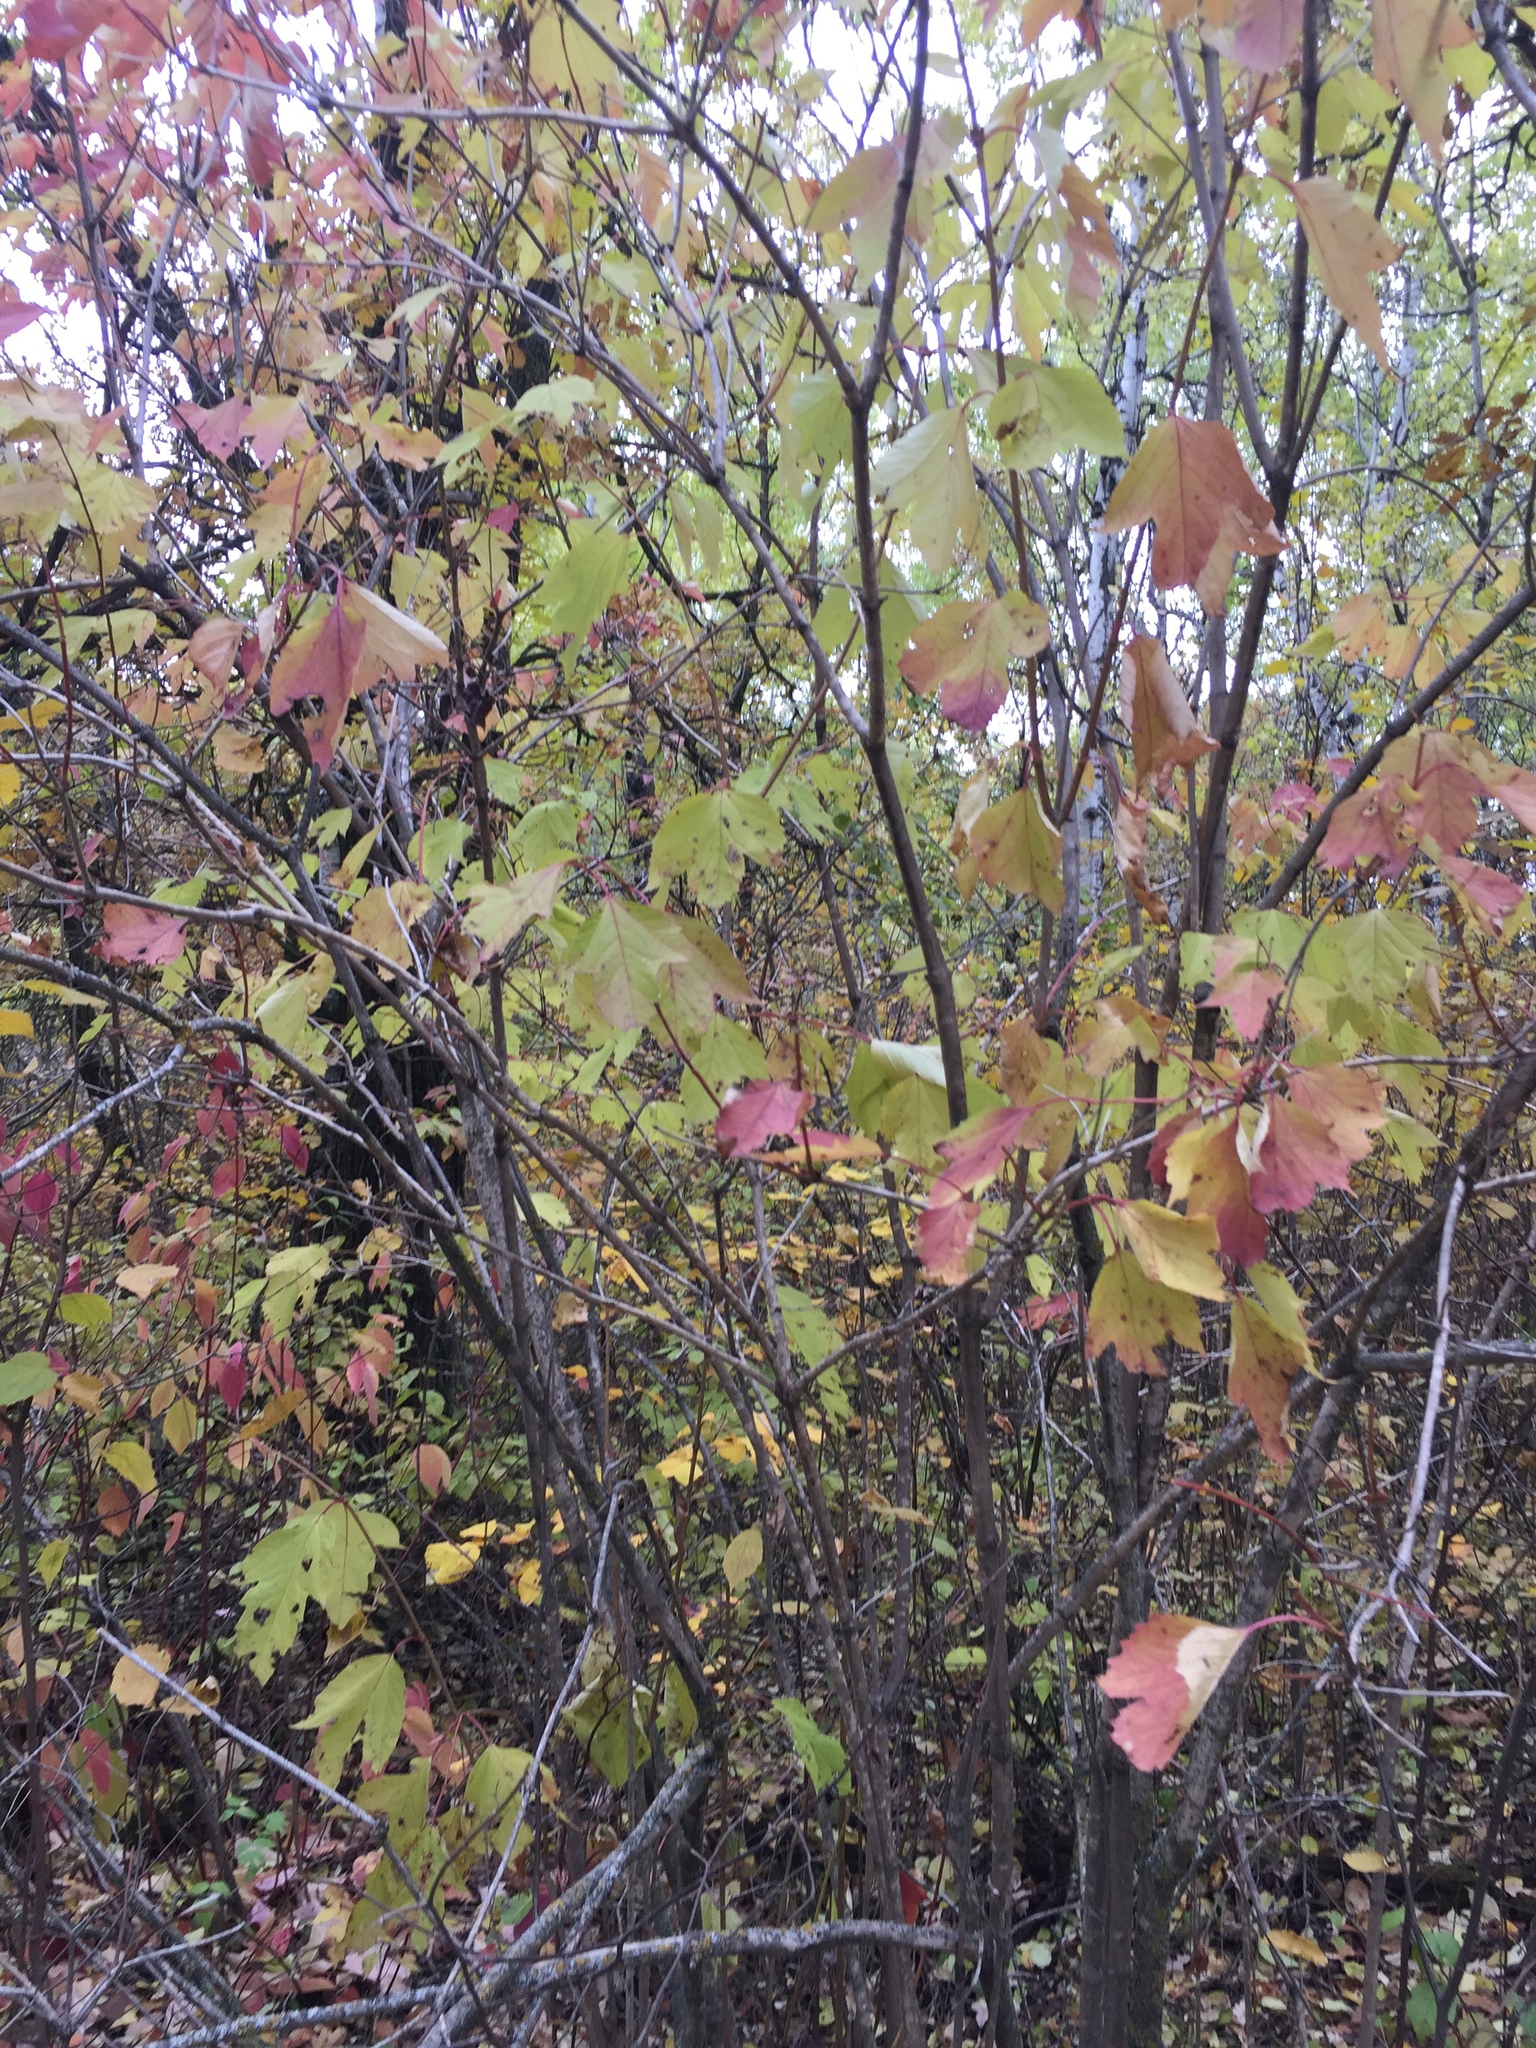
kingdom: Plantae
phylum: Tracheophyta
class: Magnoliopsida
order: Dipsacales
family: Viburnaceae
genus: Viburnum
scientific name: Viburnum trilobum
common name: American cranberrybush
